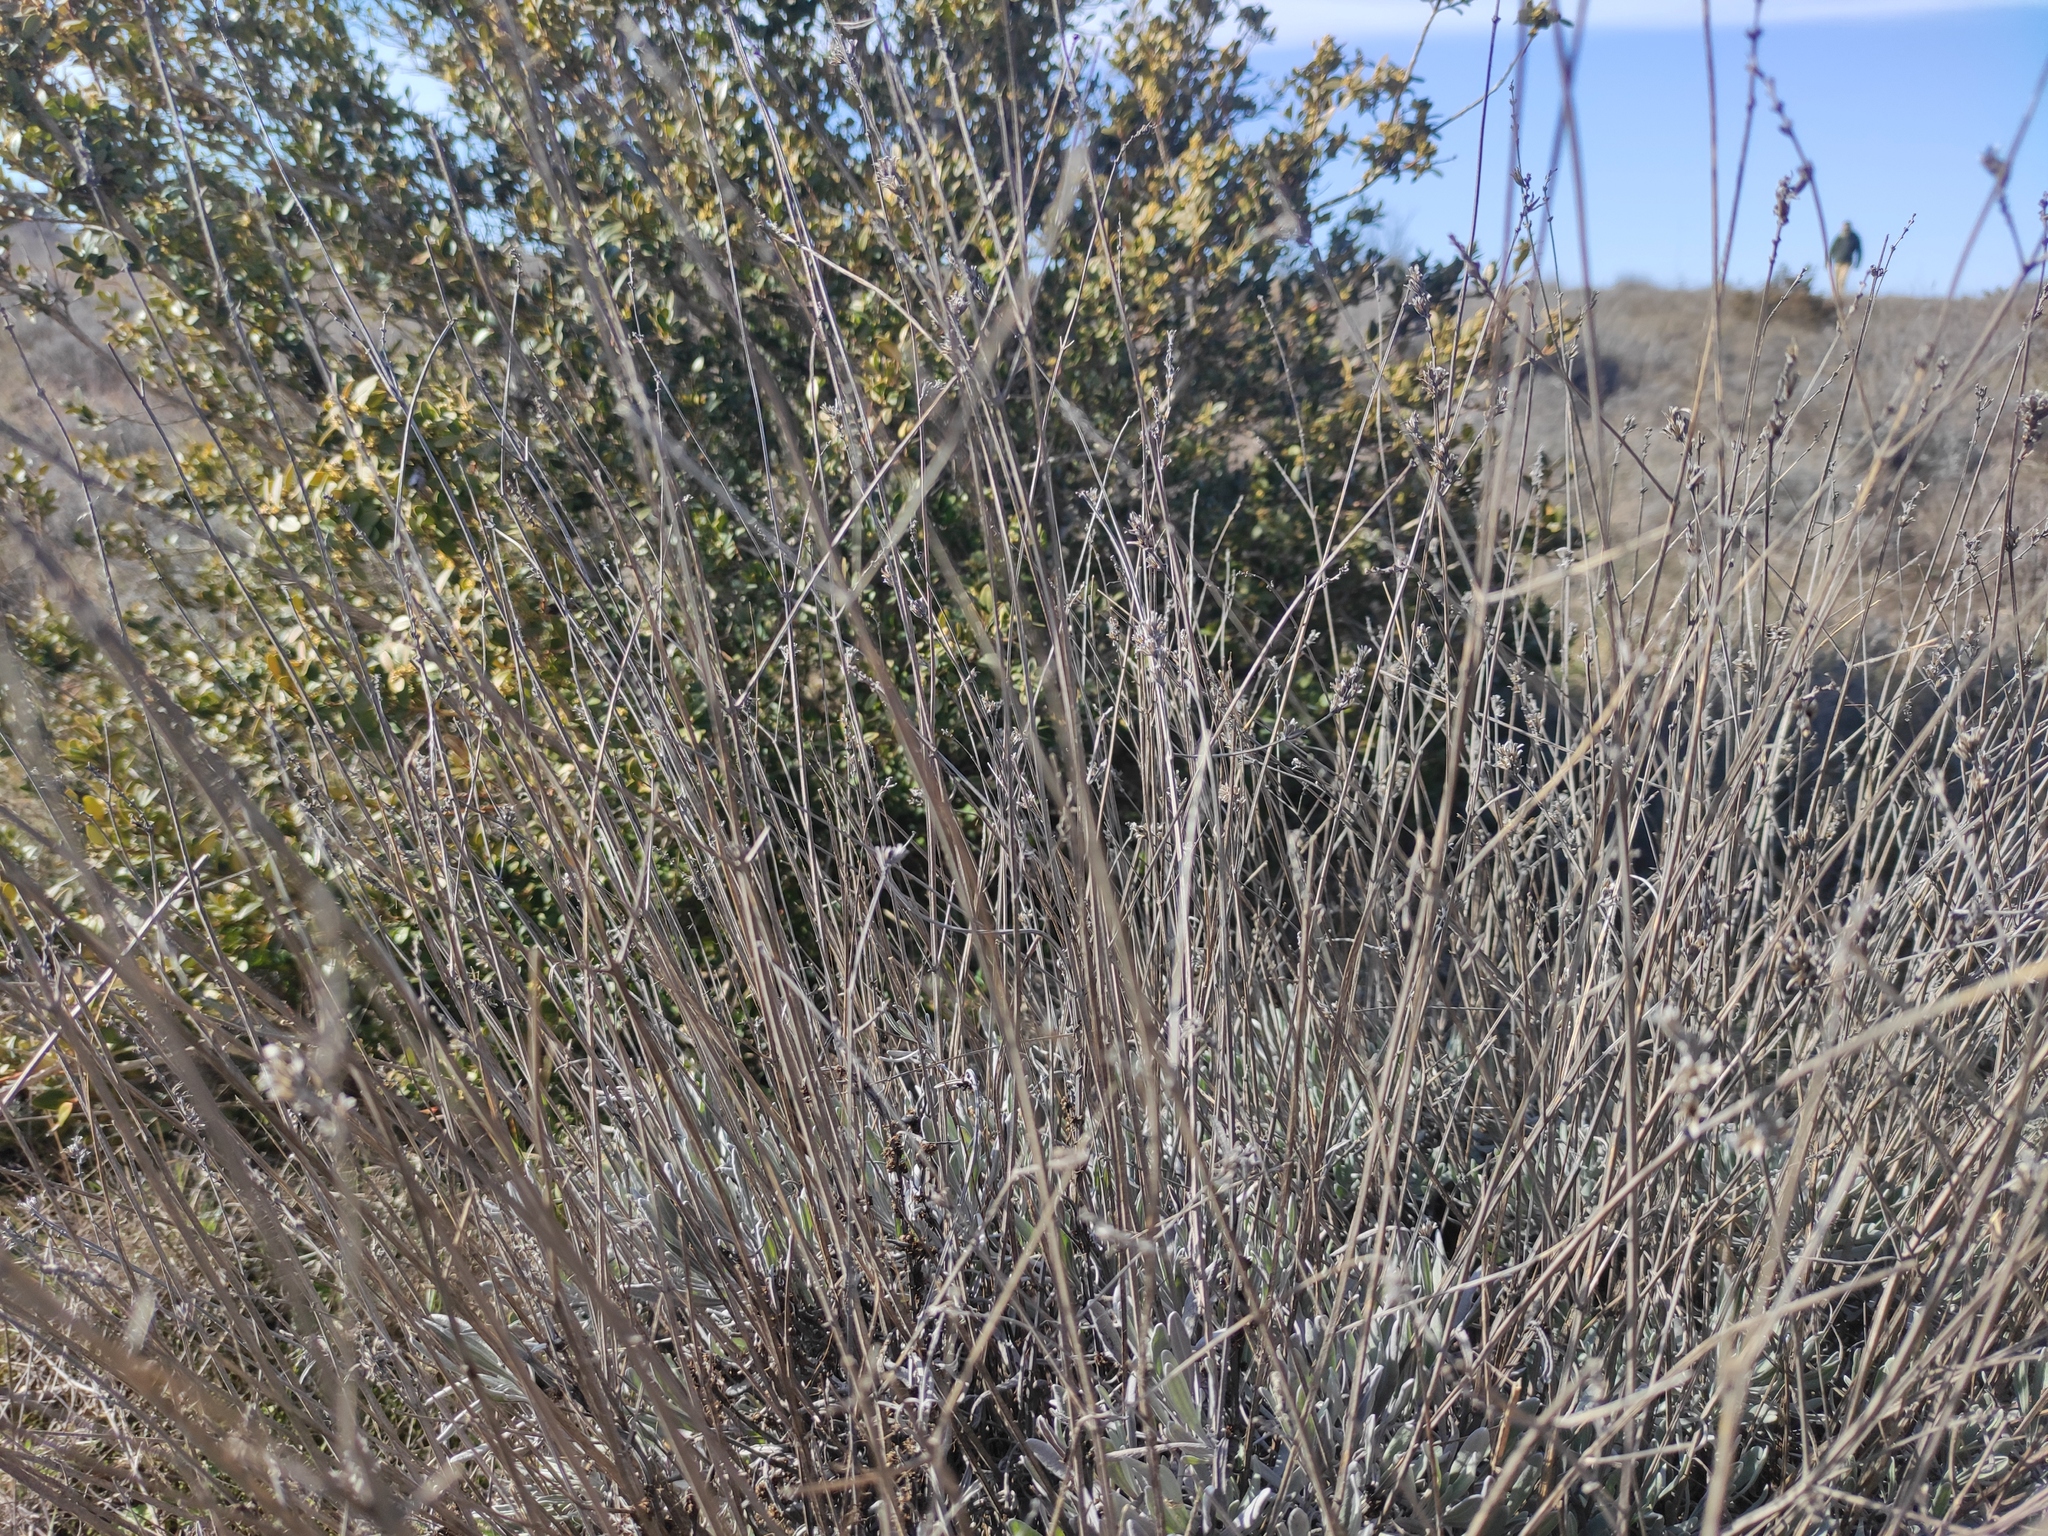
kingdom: Plantae
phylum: Tracheophyta
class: Magnoliopsida
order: Lamiales
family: Lamiaceae
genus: Lavandula
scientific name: Lavandula latifolia
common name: Spike lavendar
